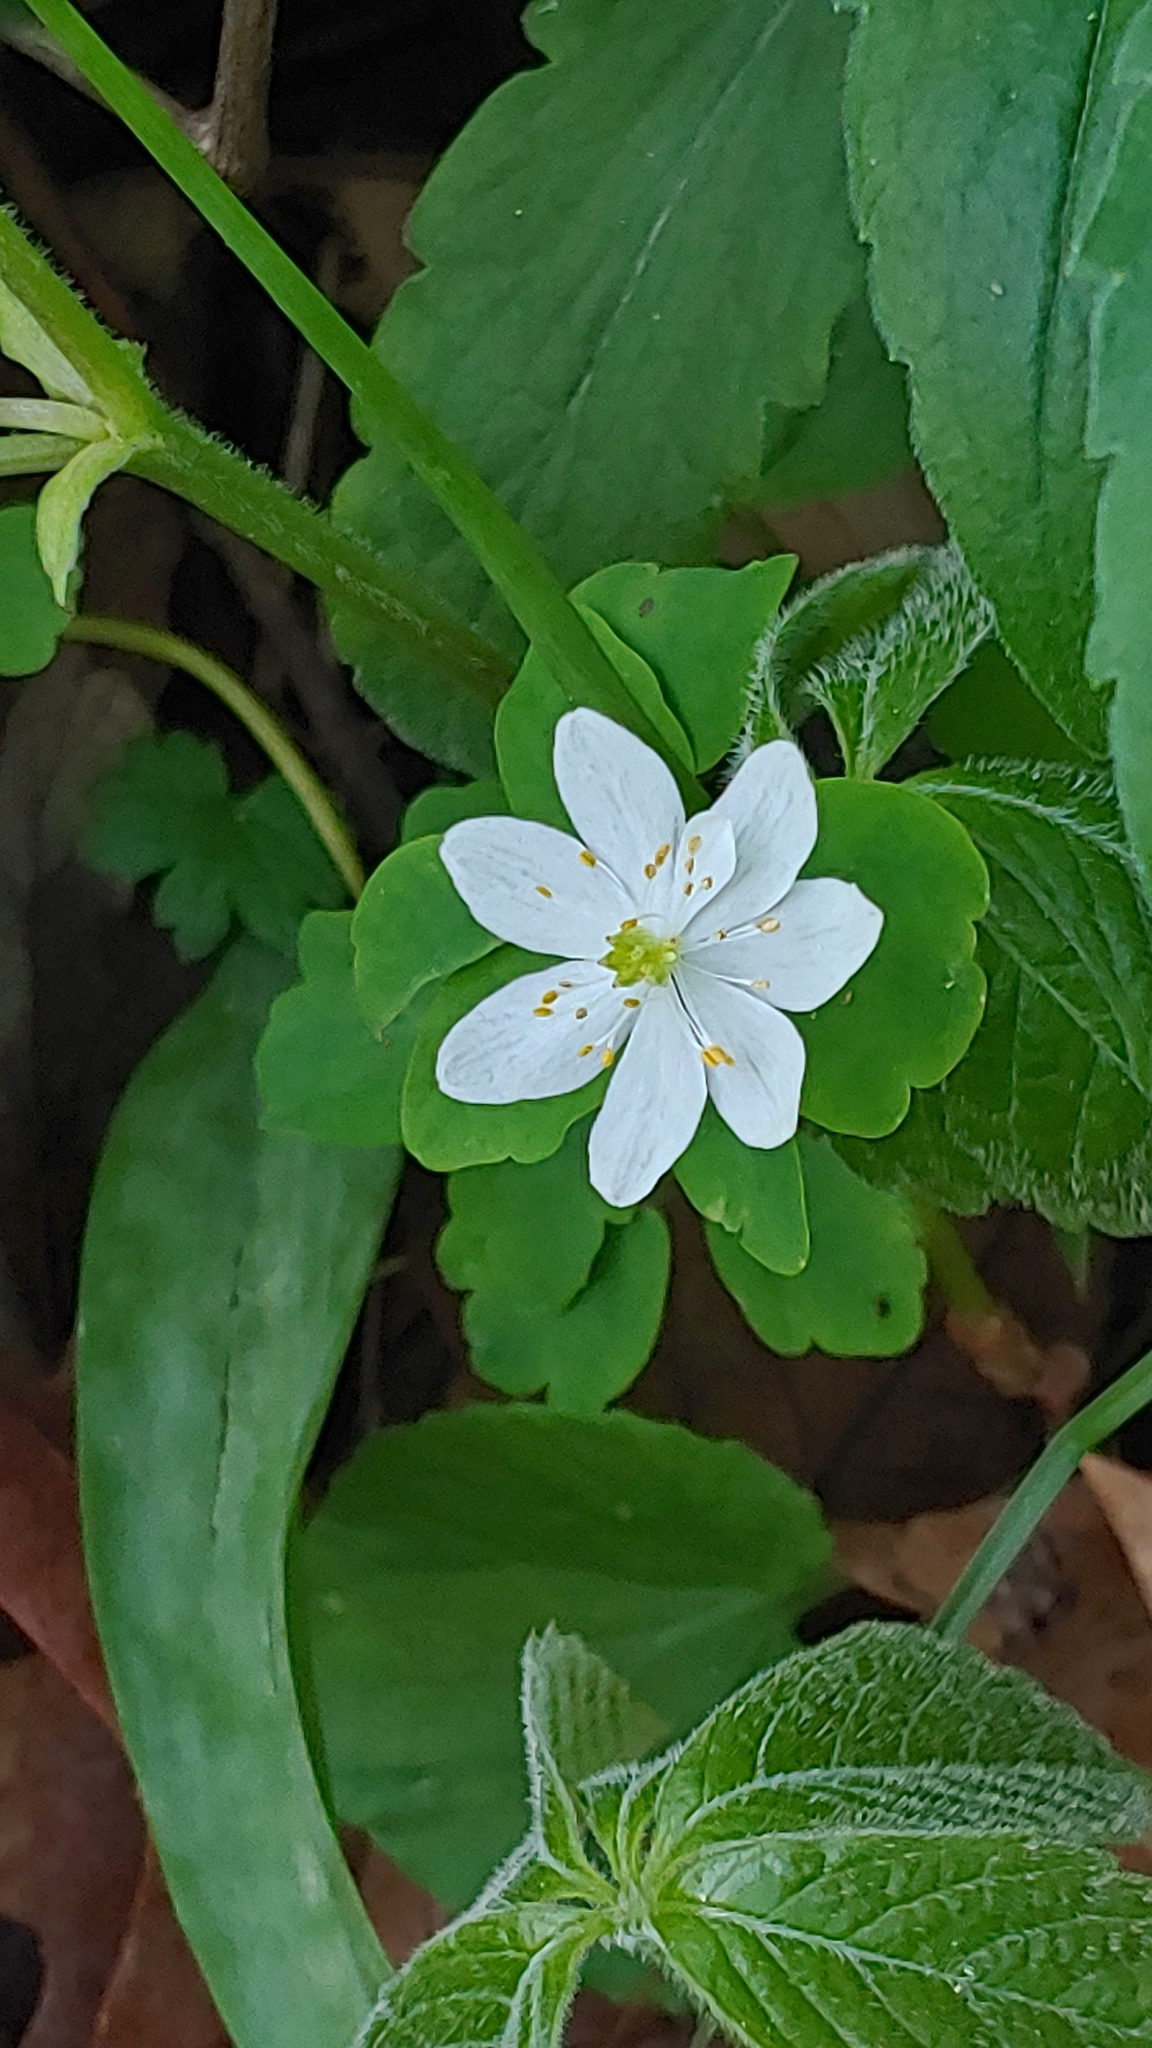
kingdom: Plantae
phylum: Tracheophyta
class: Magnoliopsida
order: Ranunculales
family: Ranunculaceae
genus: Thalictrum
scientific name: Thalictrum thalictroides
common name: Rue-anemone
